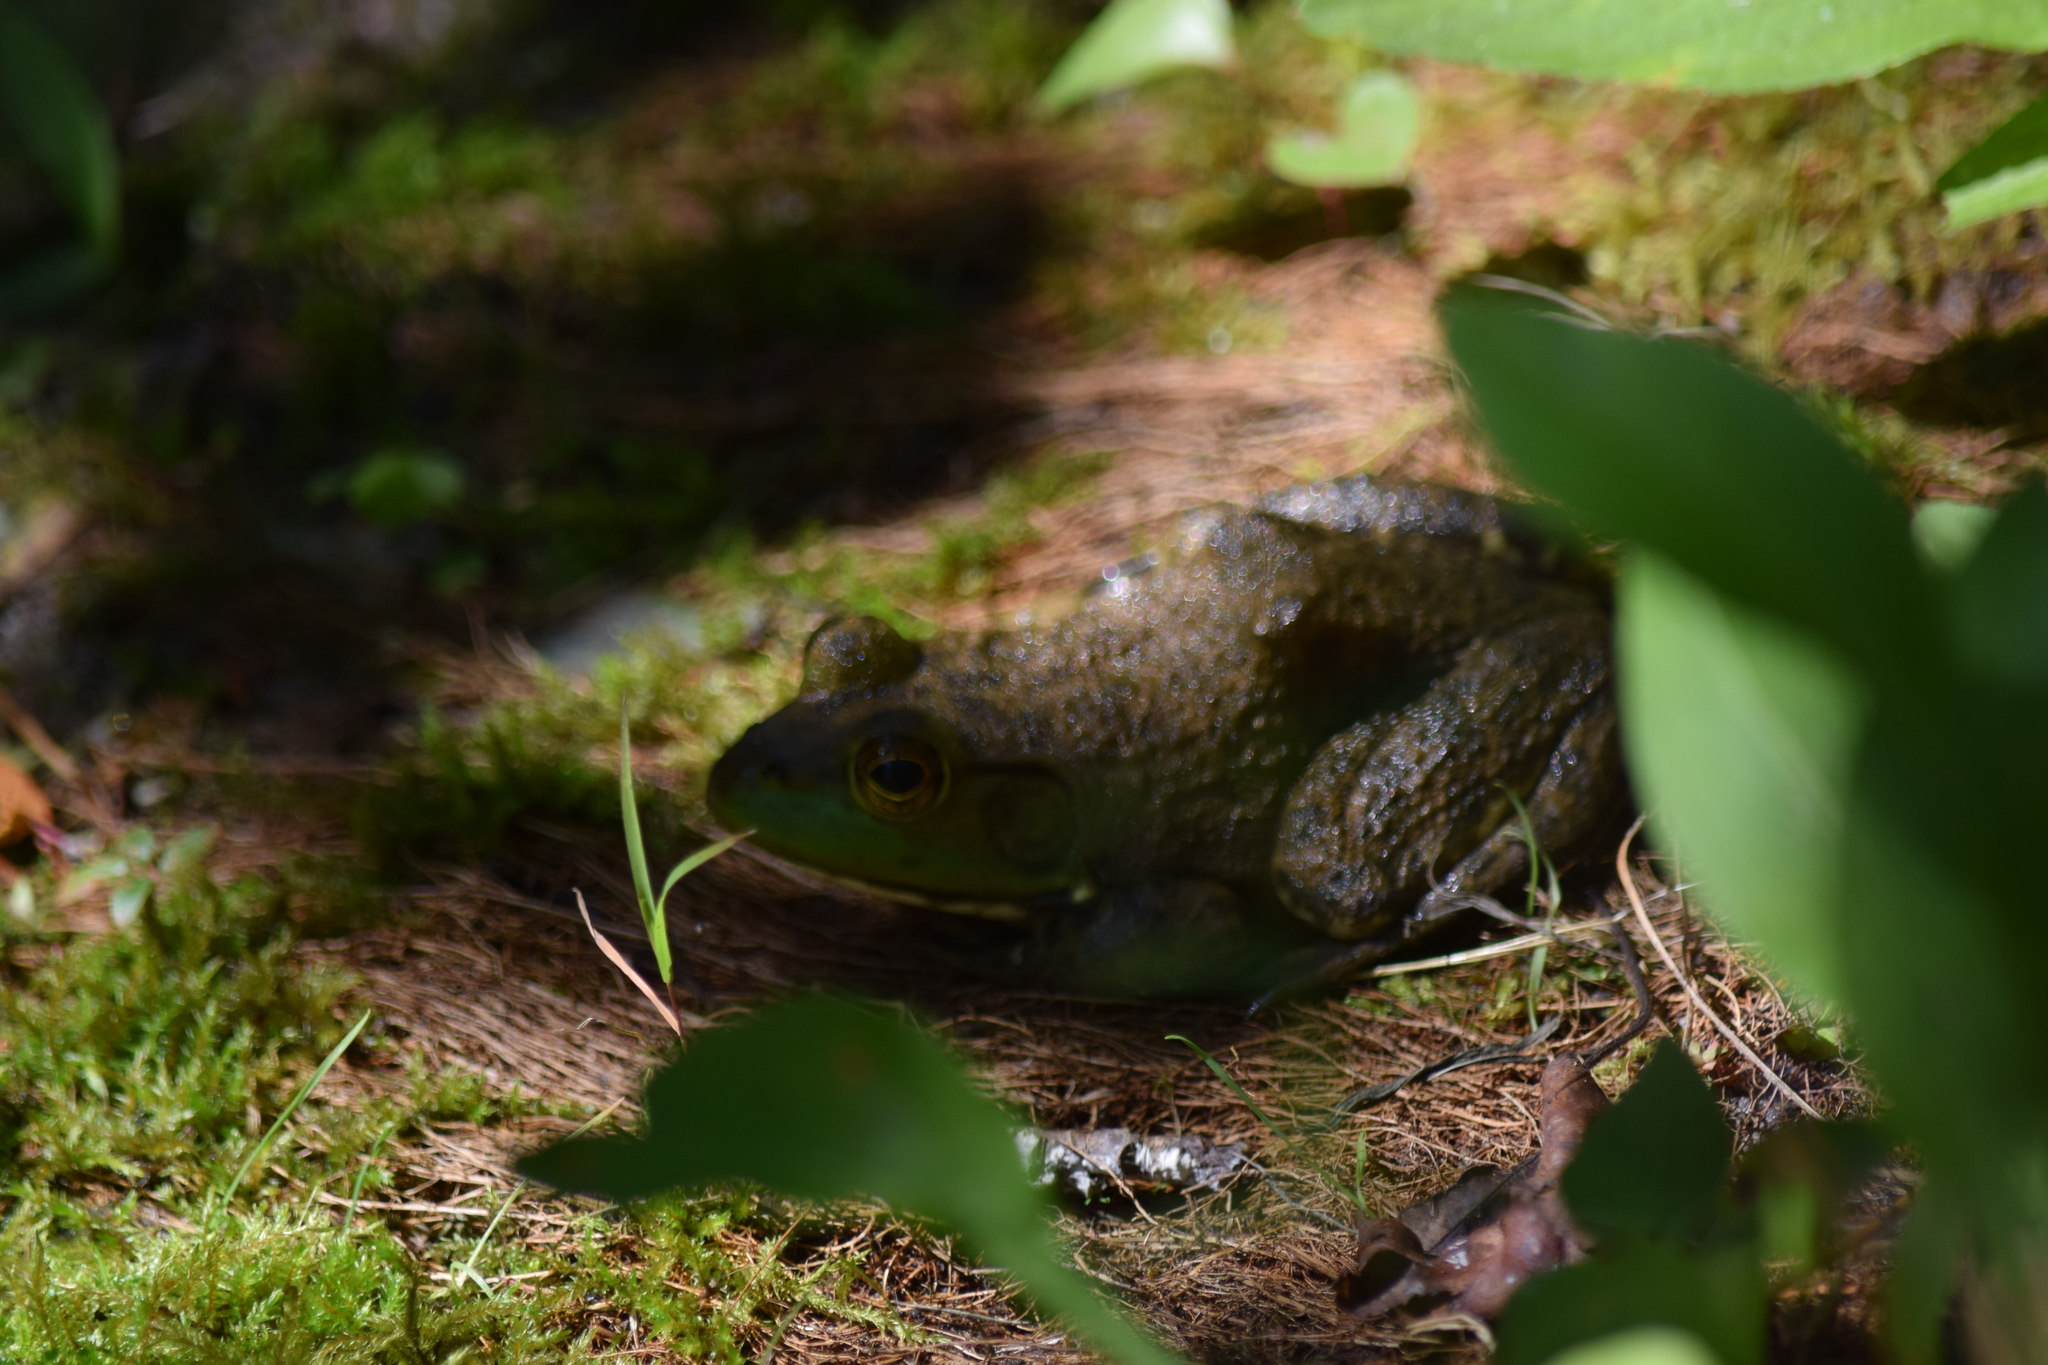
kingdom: Animalia
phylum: Chordata
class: Amphibia
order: Anura
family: Ranidae
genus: Lithobates
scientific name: Lithobates catesbeianus
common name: American bullfrog
